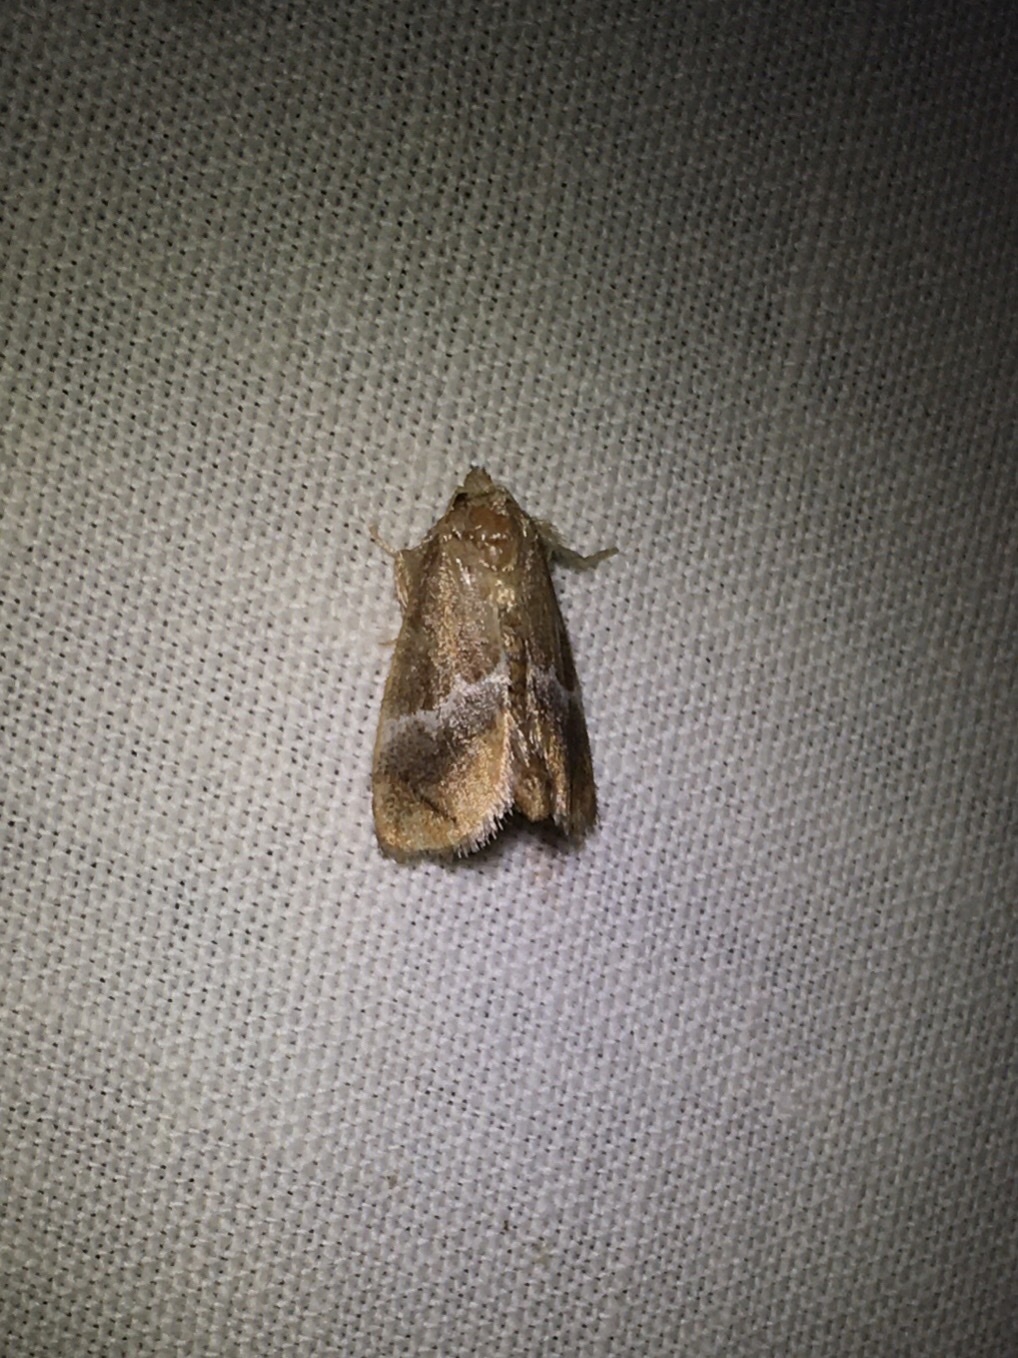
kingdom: Animalia
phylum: Arthropoda
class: Insecta
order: Lepidoptera
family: Limacodidae
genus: Lithacodes
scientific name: Lithacodes fasciola
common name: Yellow-shouldered slug moth
